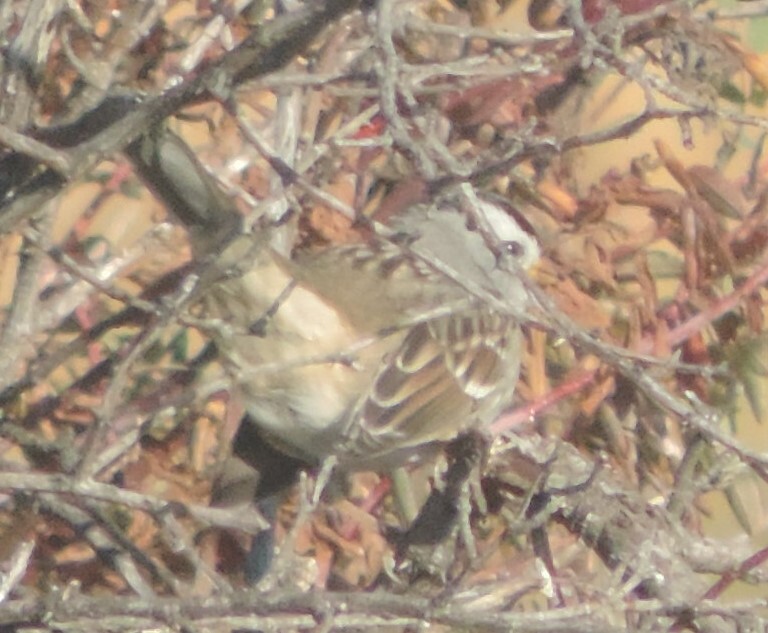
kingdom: Animalia
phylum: Chordata
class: Aves
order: Passeriformes
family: Passerellidae
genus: Zonotrichia
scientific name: Zonotrichia leucophrys
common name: White-crowned sparrow
